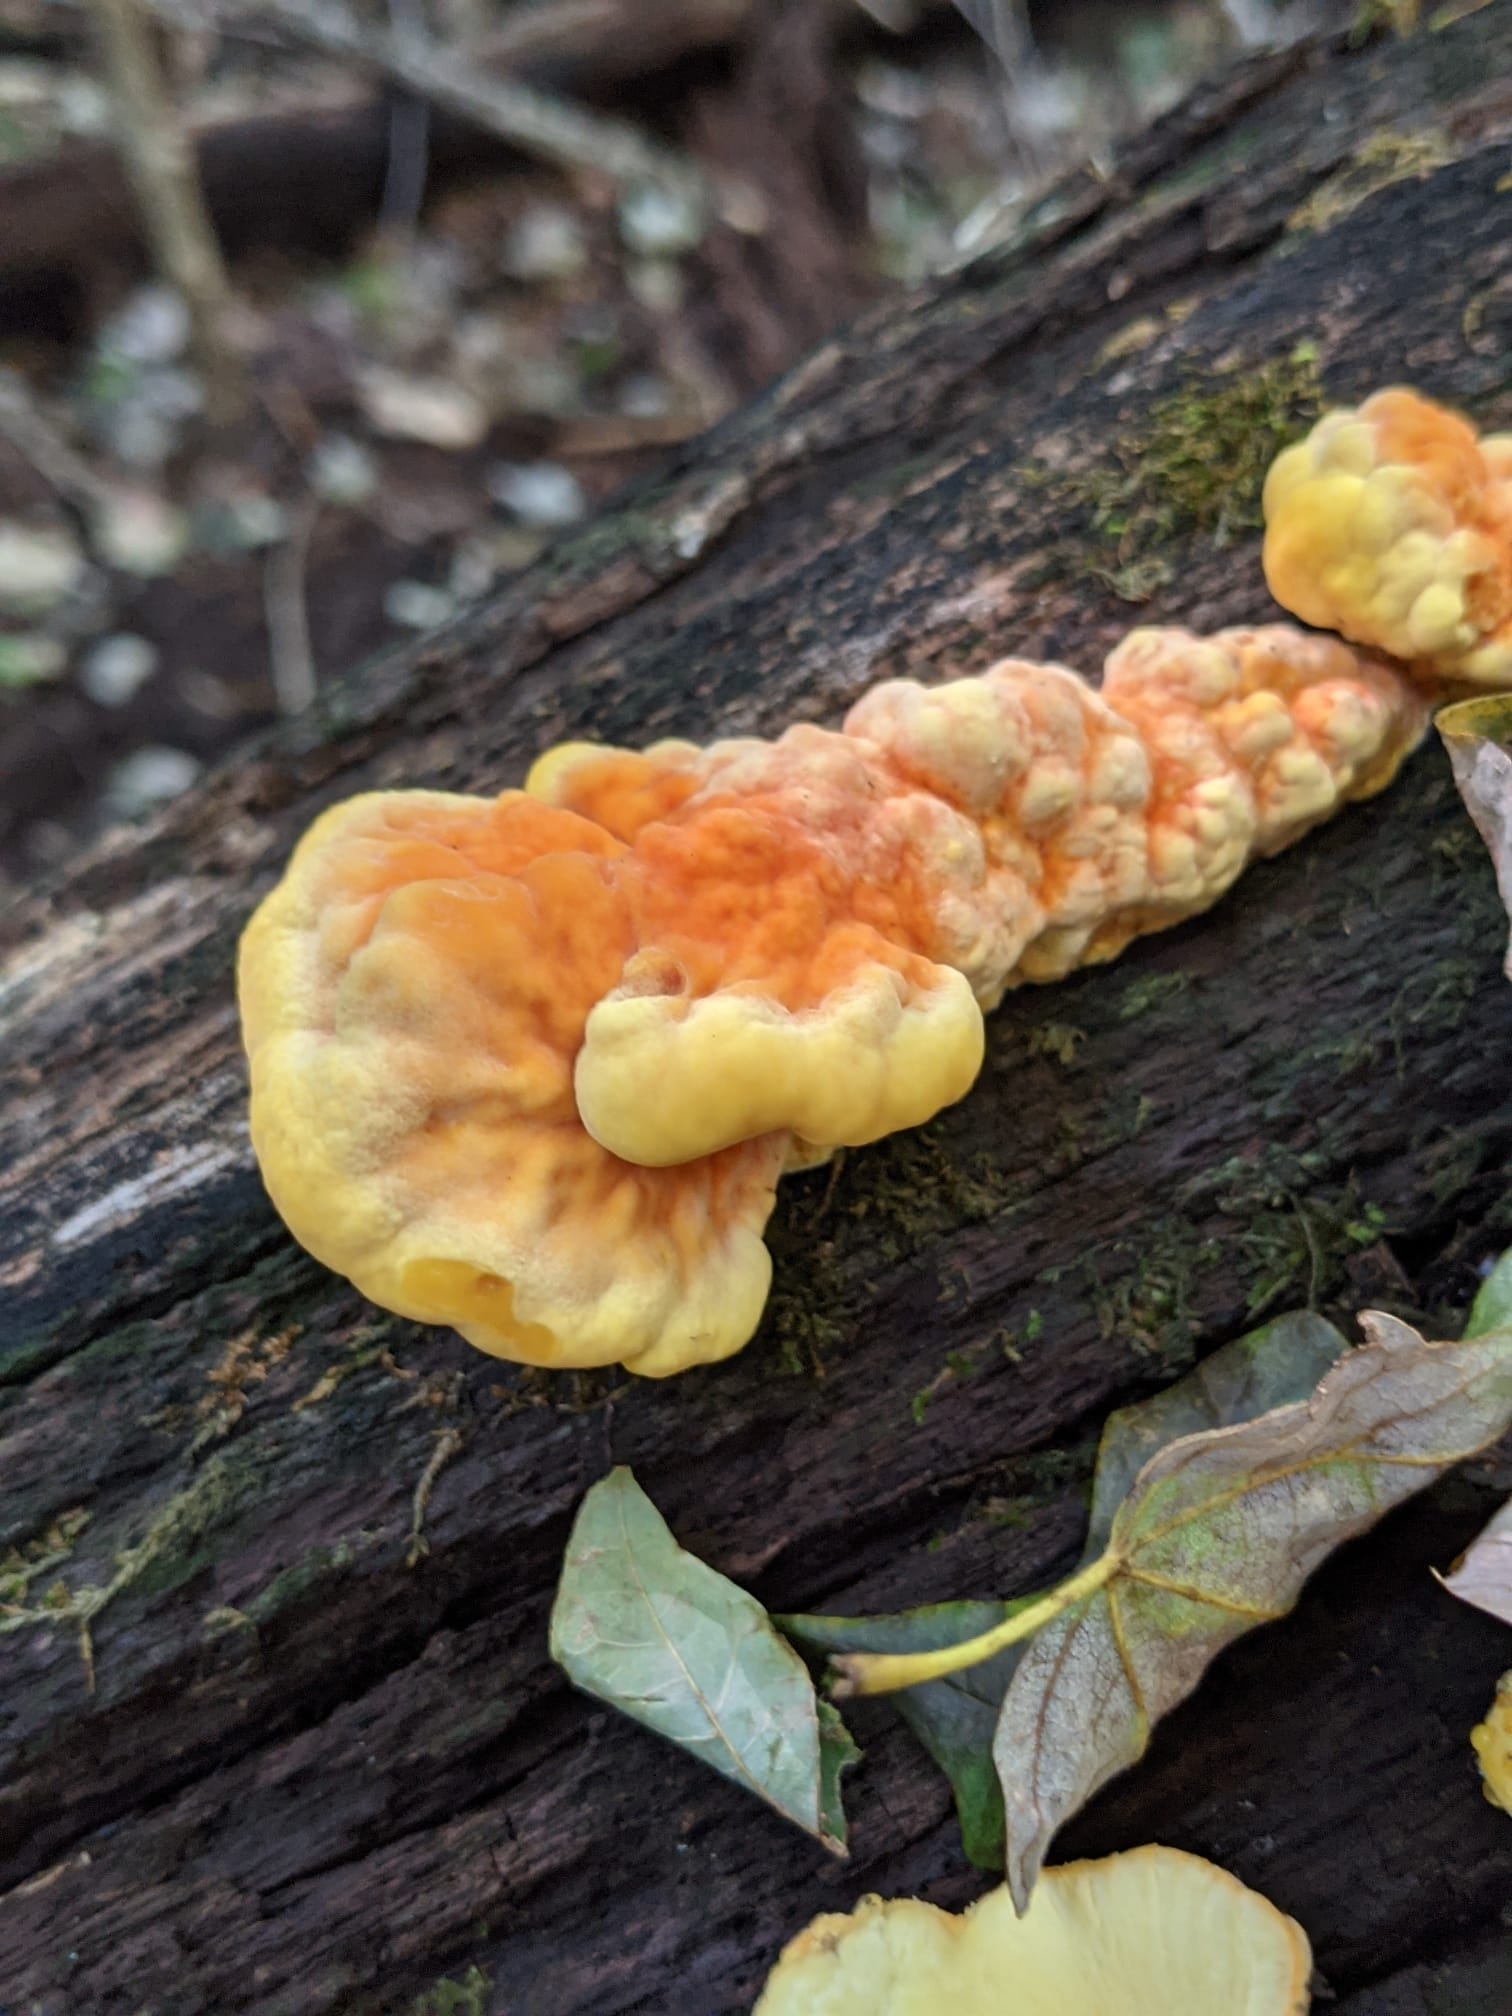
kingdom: Fungi
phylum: Basidiomycota
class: Agaricomycetes
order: Polyporales
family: Laetiporaceae
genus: Laetiporus
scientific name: Laetiporus sulphureus
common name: Chicken of the woods
